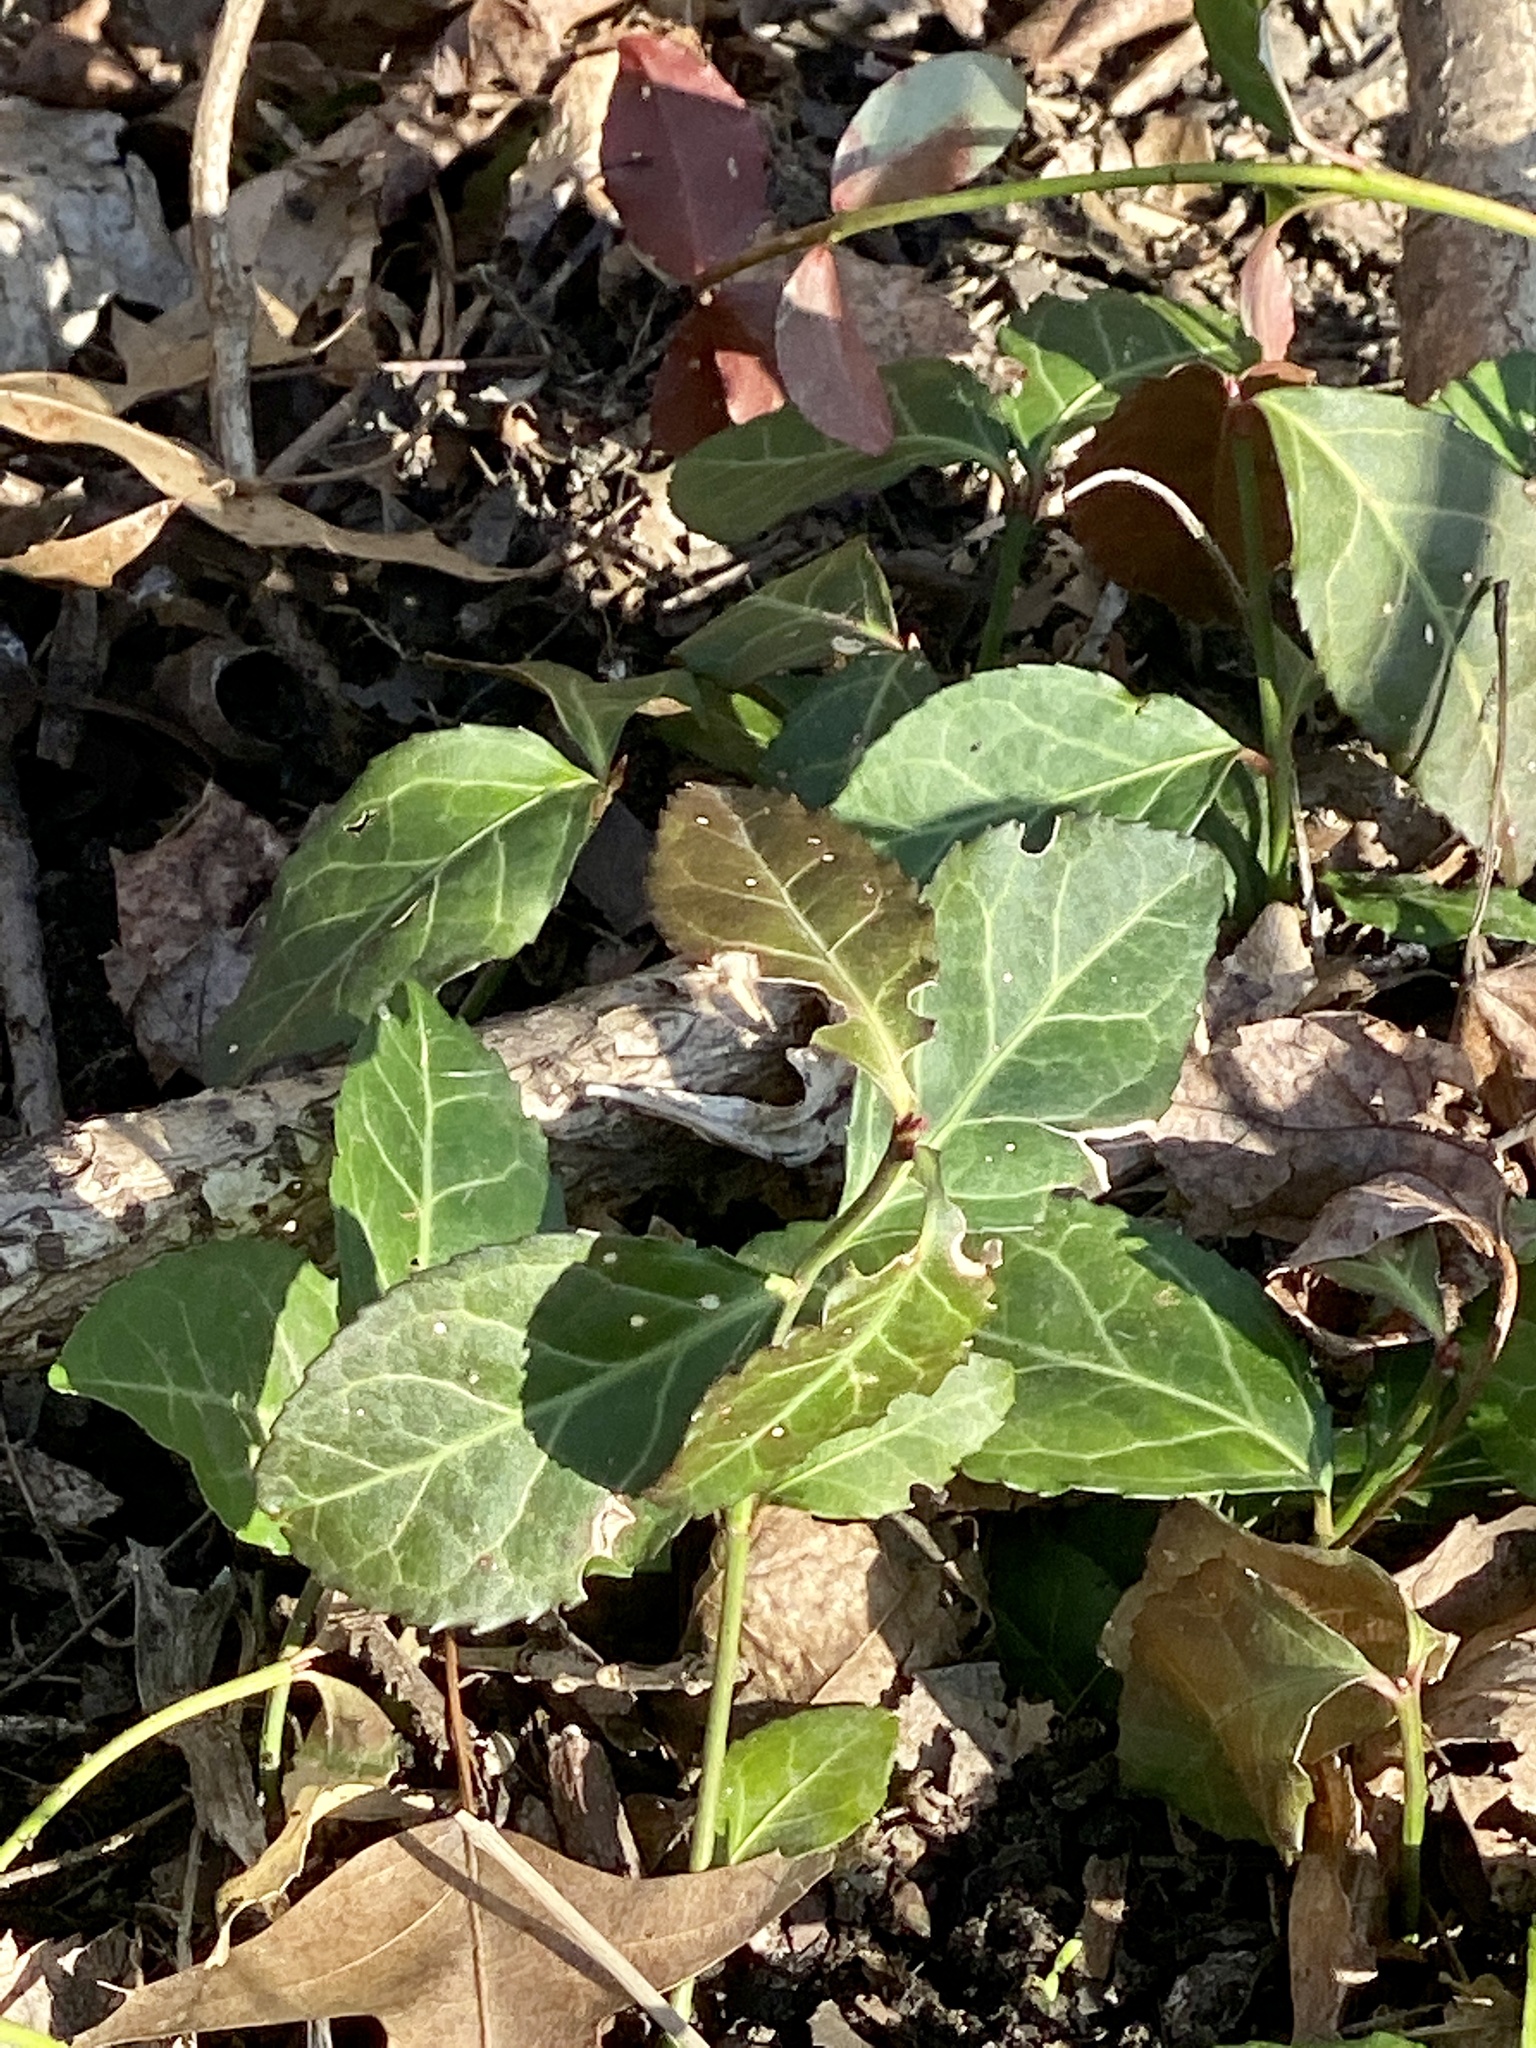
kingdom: Plantae
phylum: Tracheophyta
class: Magnoliopsida
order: Celastrales
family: Celastraceae
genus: Euonymus
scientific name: Euonymus fortunei
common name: Climbing euonymus
